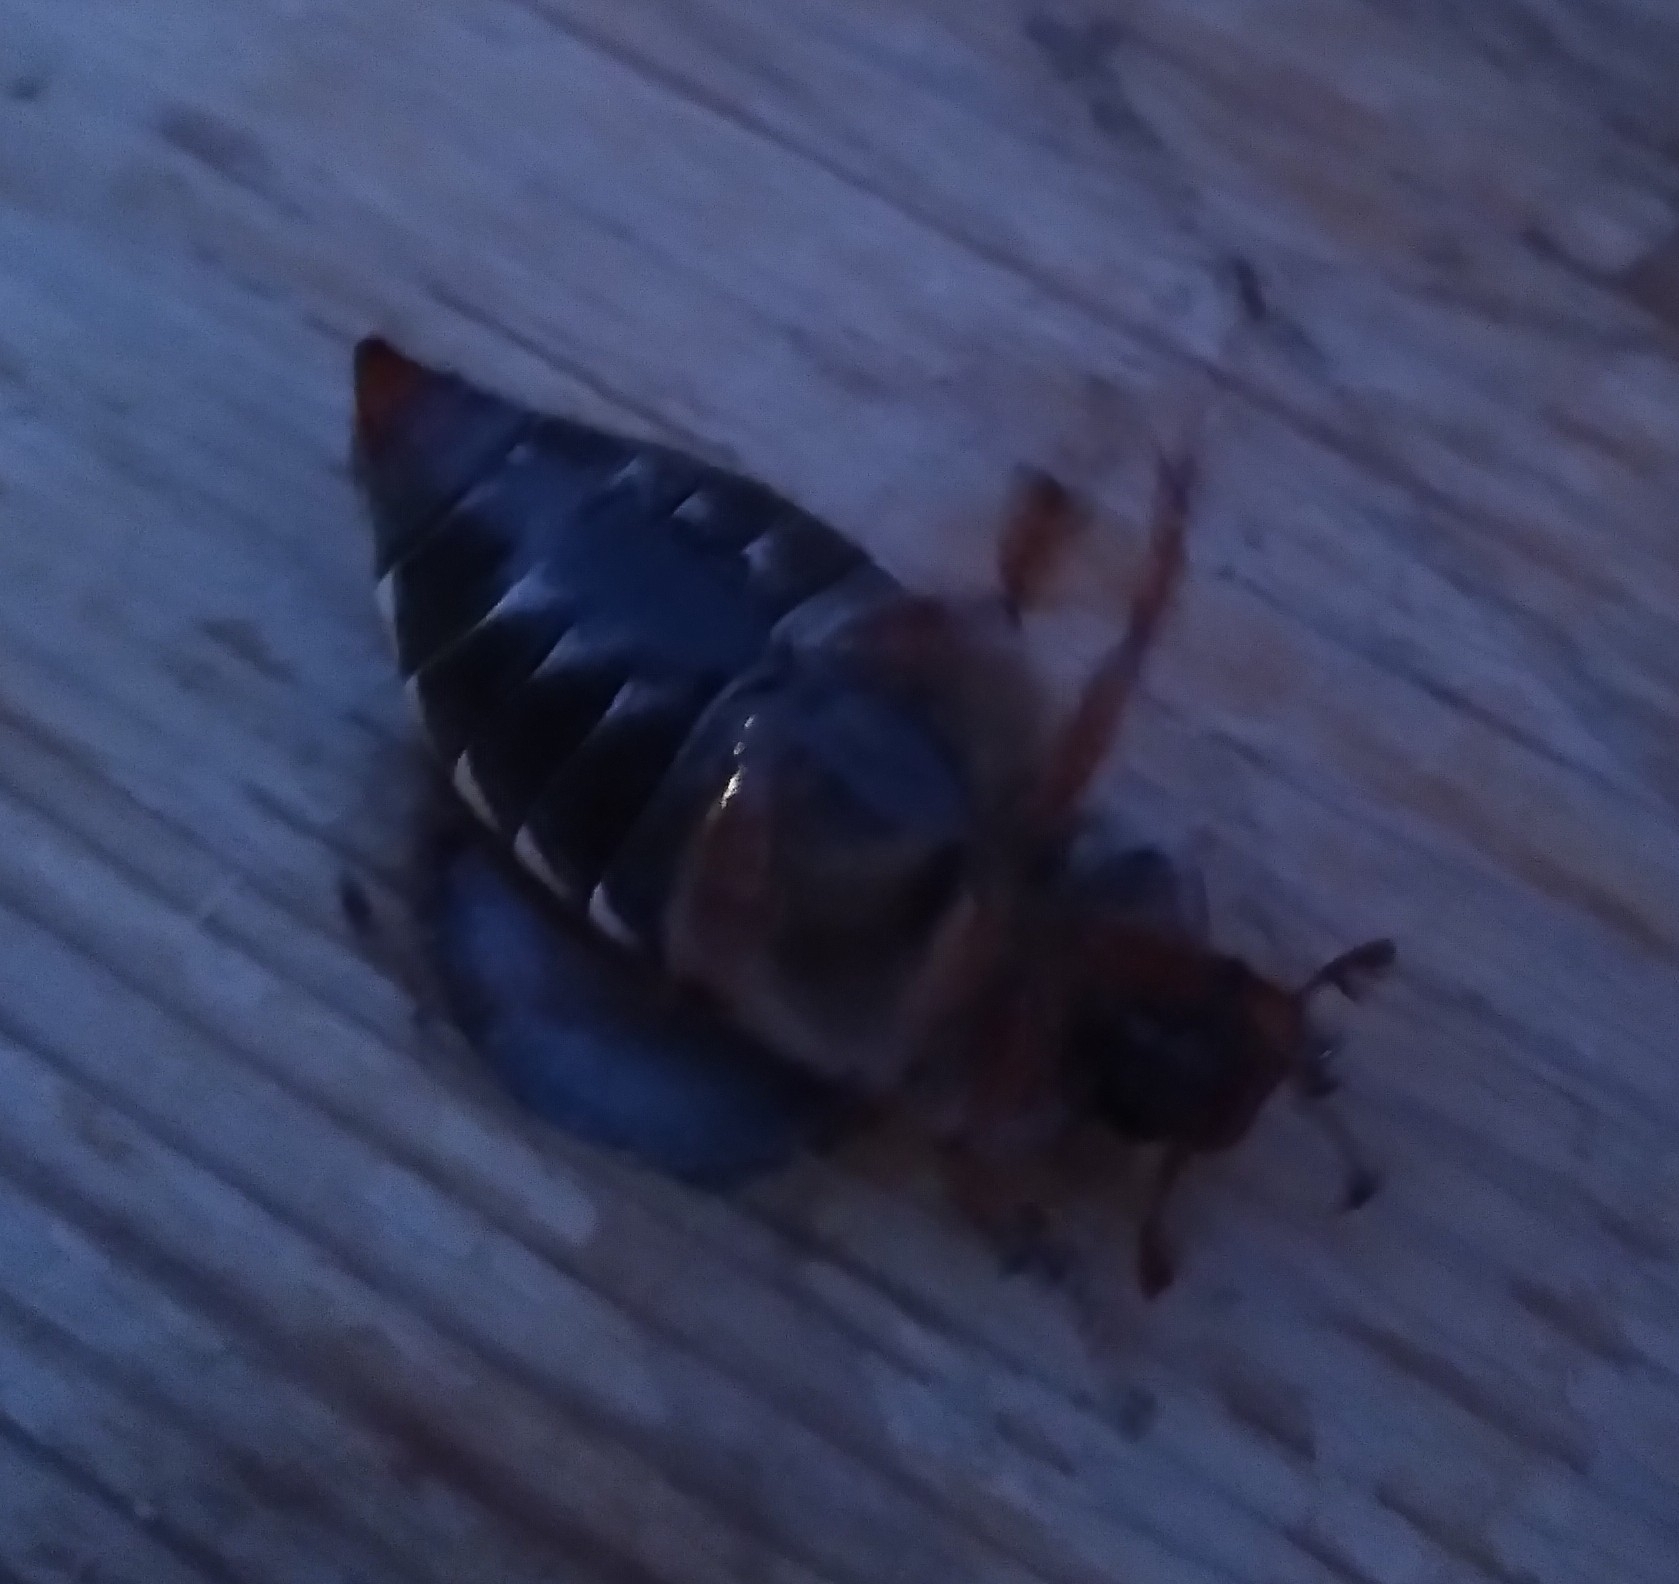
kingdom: Animalia
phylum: Arthropoda
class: Insecta
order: Coleoptera
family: Scarabaeidae
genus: Melolontha
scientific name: Melolontha melolontha
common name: Cockchafer maybeetle
